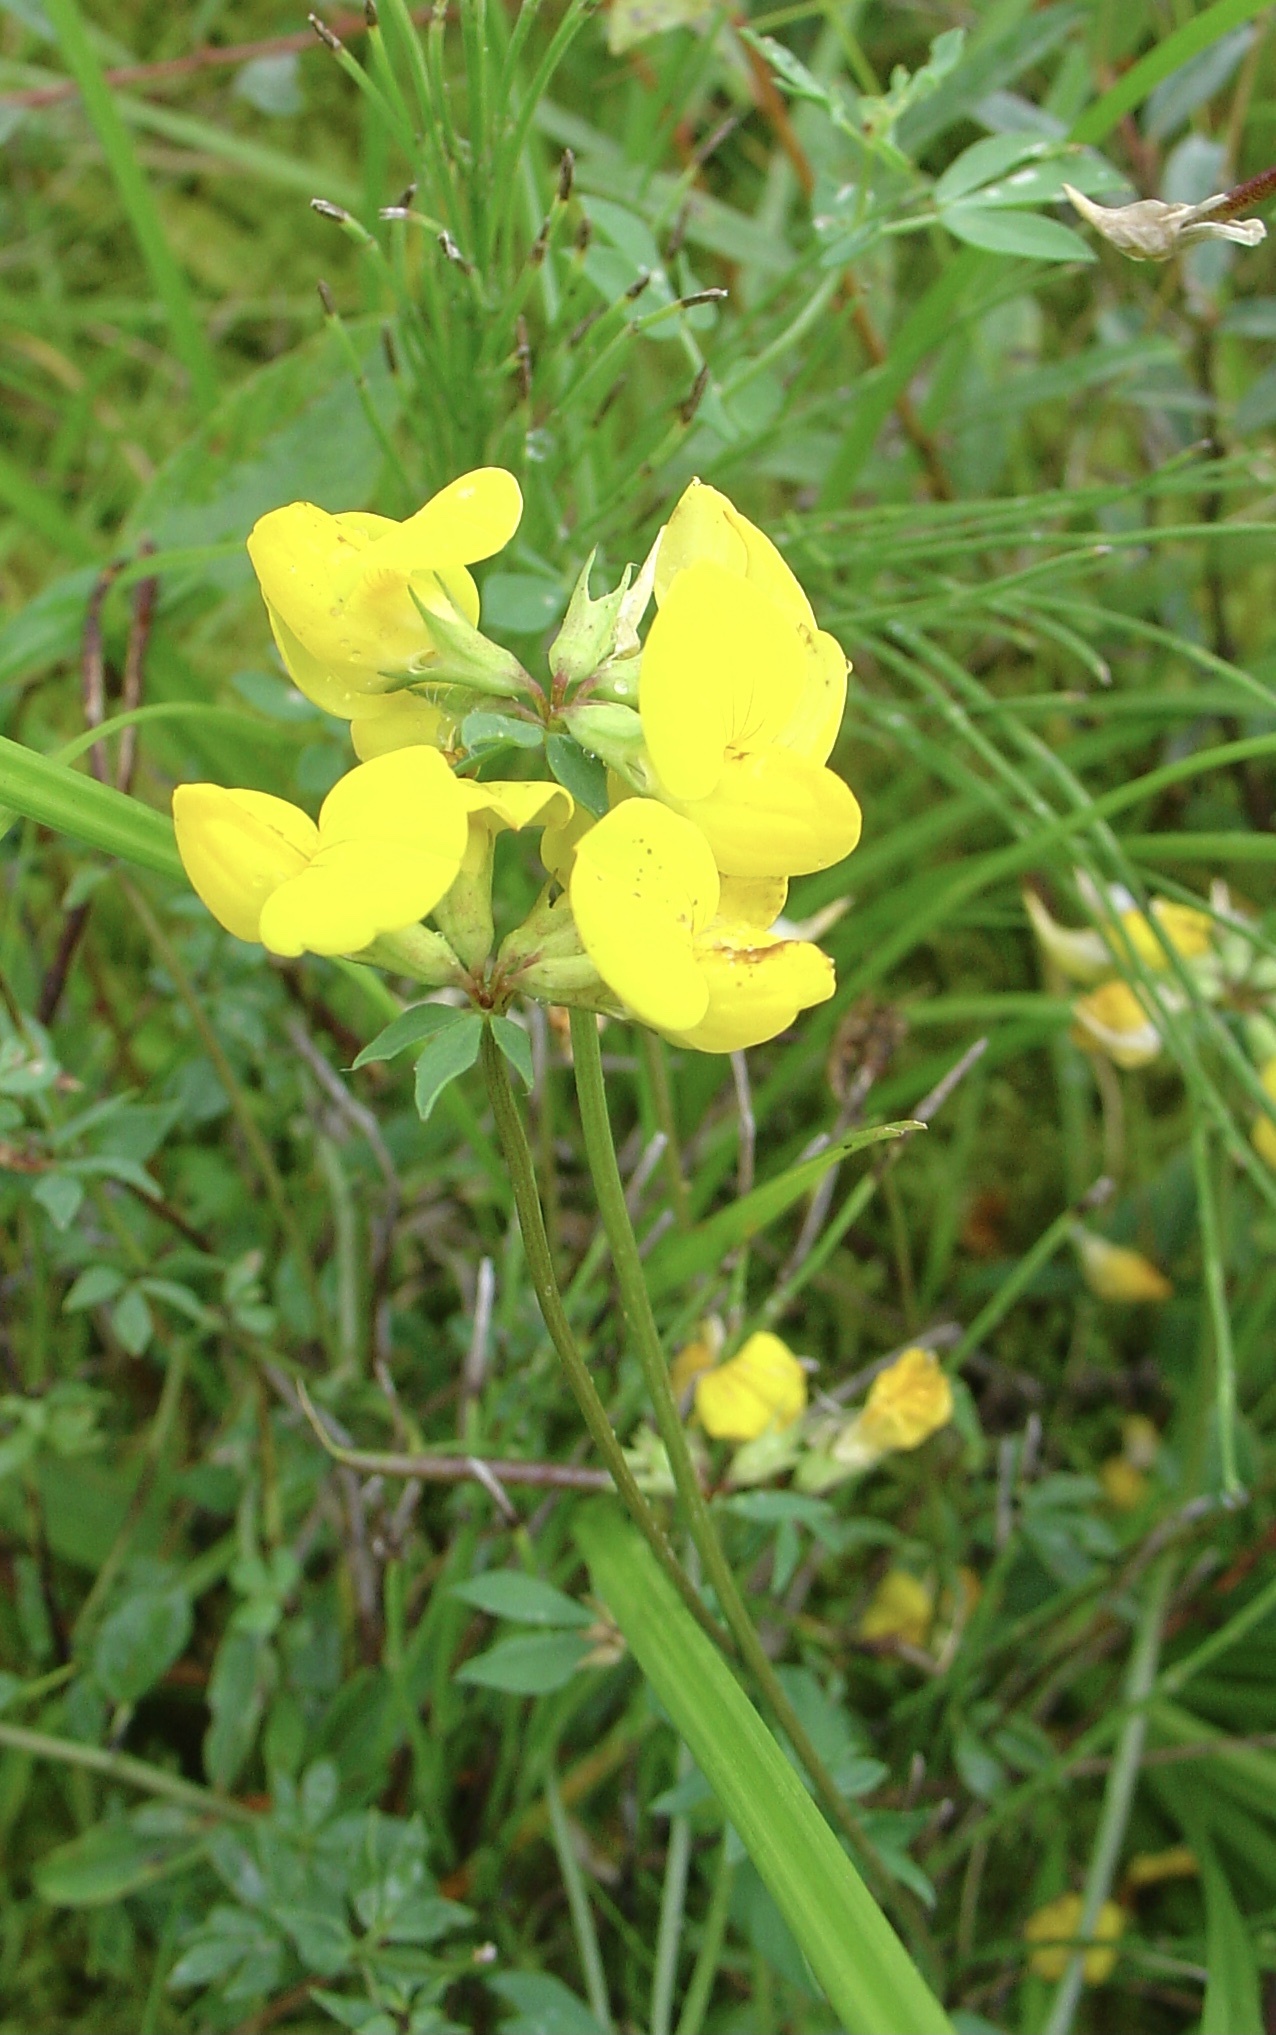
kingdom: Plantae
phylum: Tracheophyta
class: Magnoliopsida
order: Fabales
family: Fabaceae
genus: Lotus
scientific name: Lotus corniculatus
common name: Common bird's-foot-trefoil
